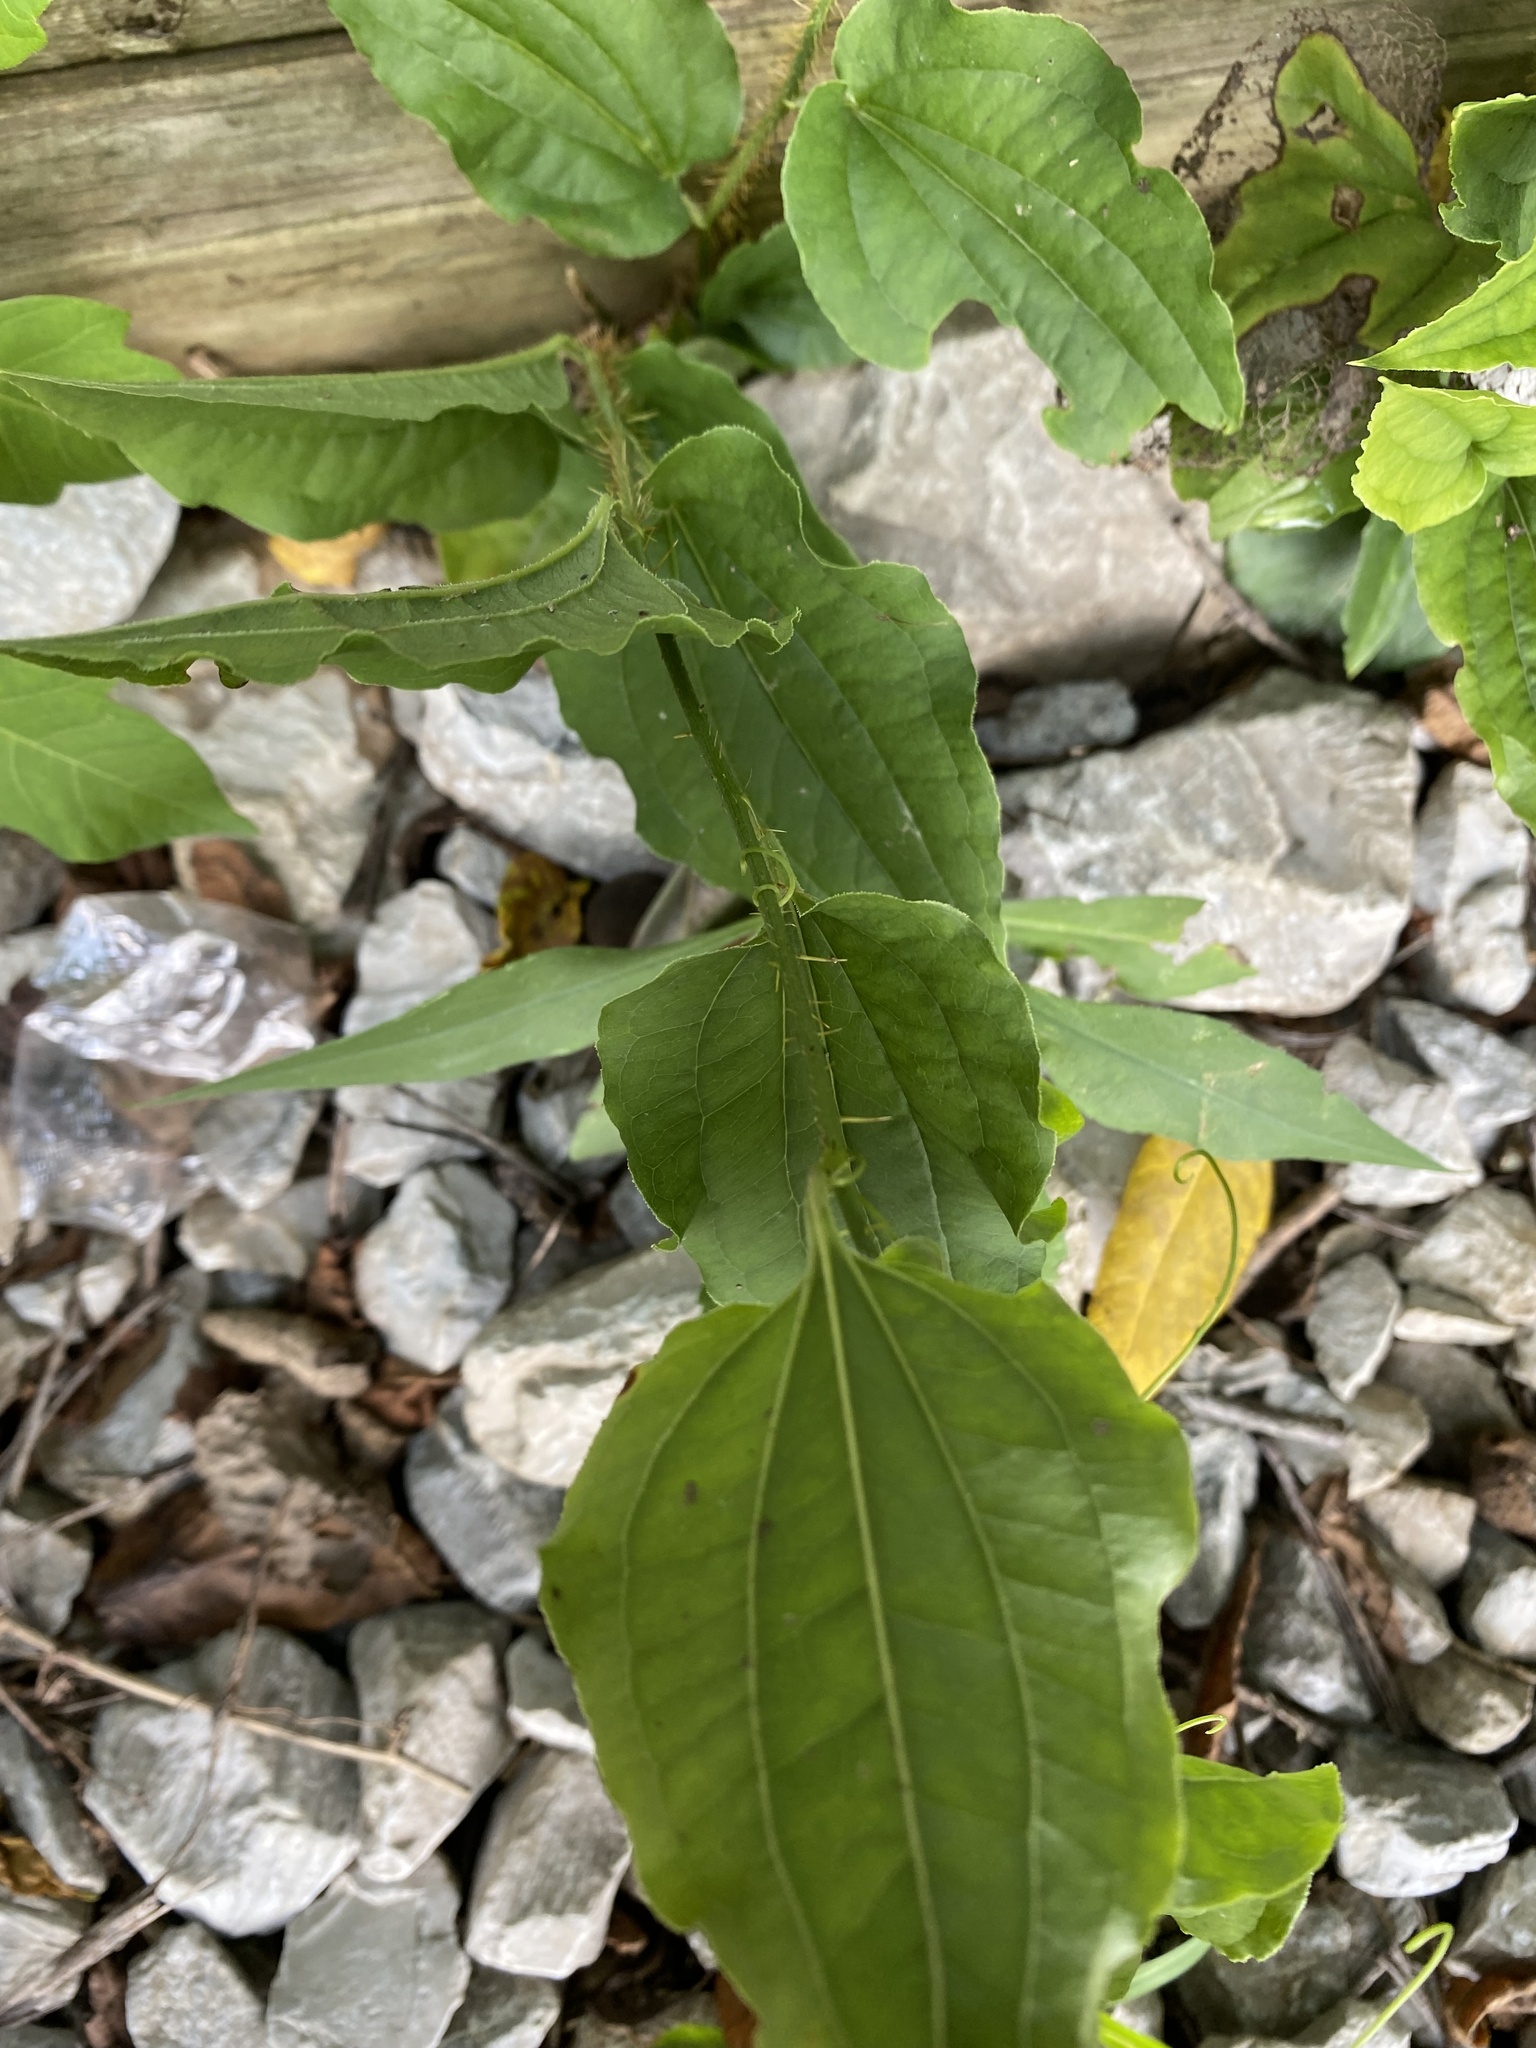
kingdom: Plantae
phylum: Tracheophyta
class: Liliopsida
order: Liliales
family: Smilacaceae
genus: Smilax
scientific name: Smilax tamnoides
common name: Hellfetter
